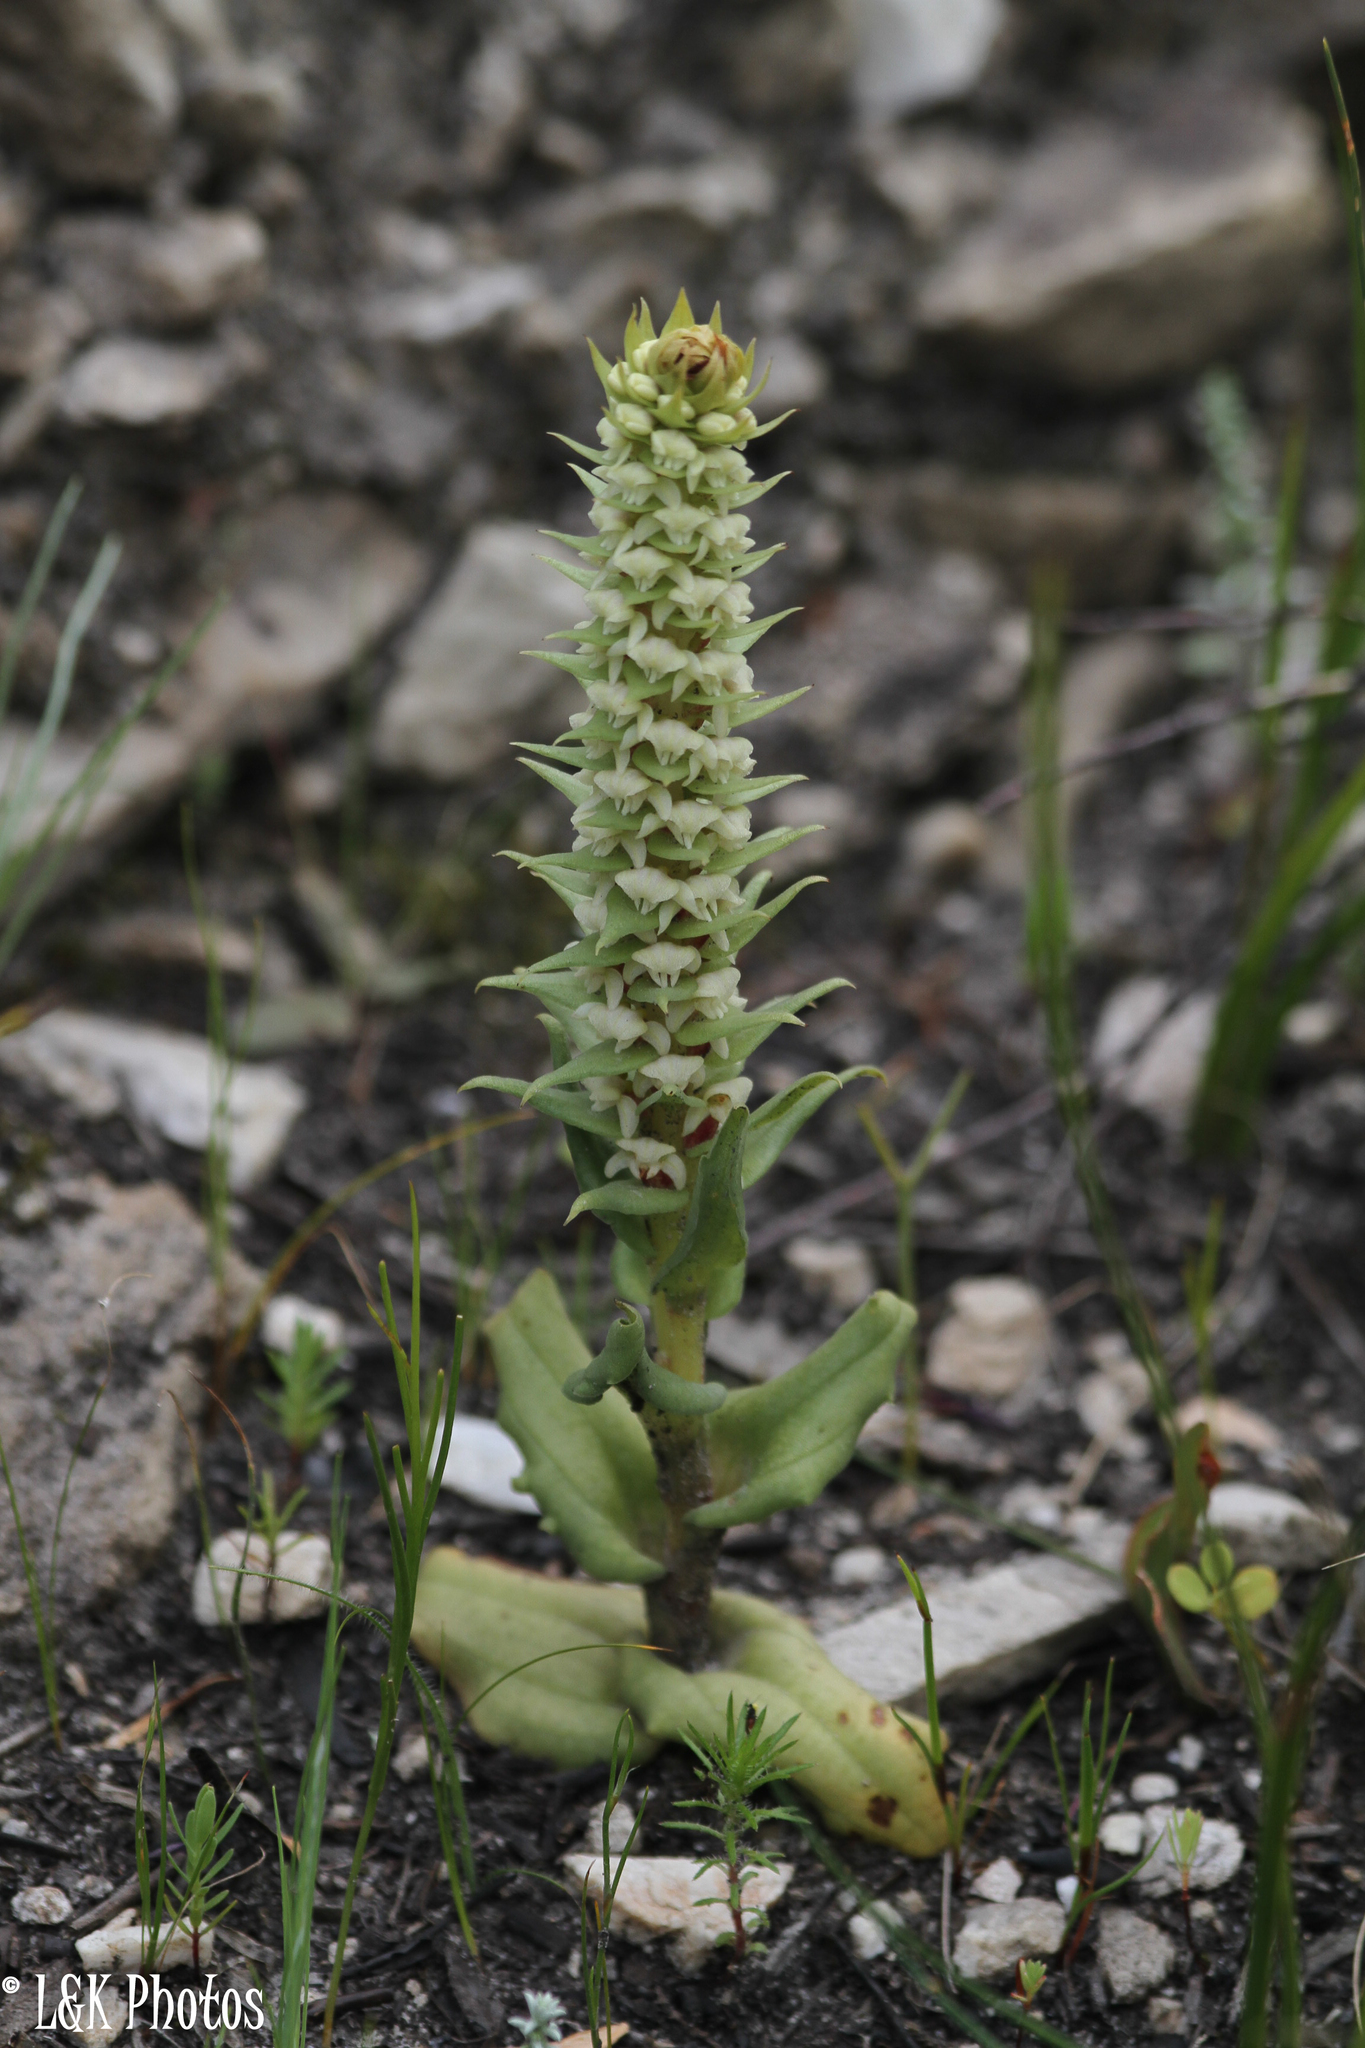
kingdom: Plantae
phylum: Tracheophyta
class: Liliopsida
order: Asparagales
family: Orchidaceae
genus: Satyrium
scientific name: Satyrium bicallosum
